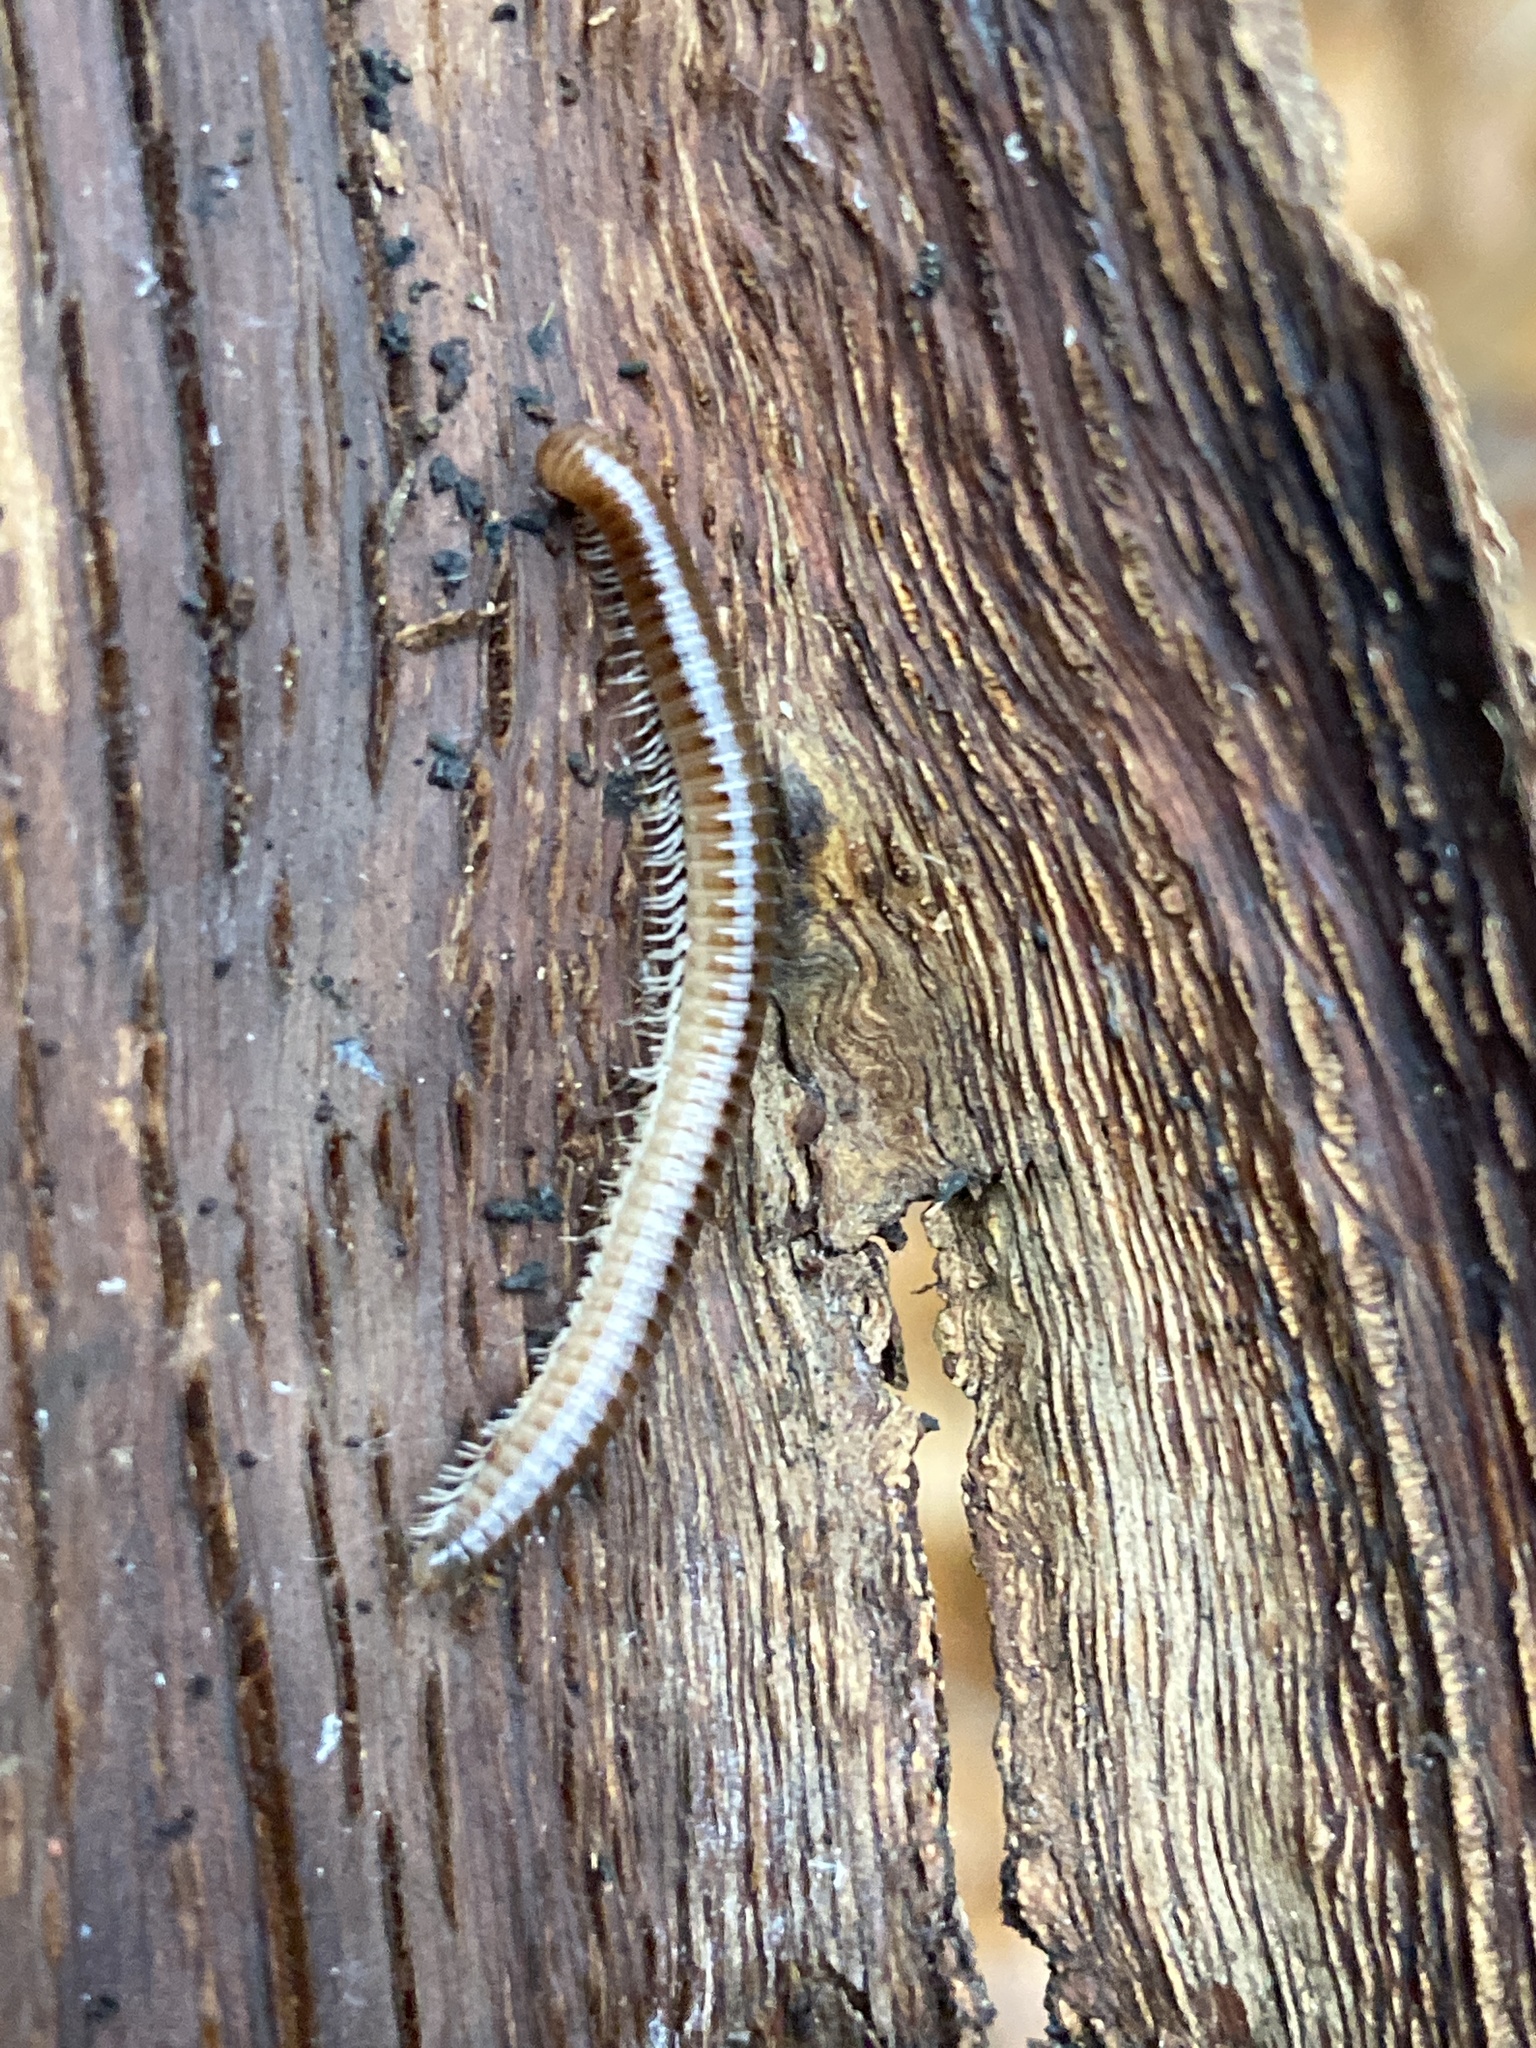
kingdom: Animalia
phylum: Arthropoda
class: Diplopoda
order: Julida
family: Julidae
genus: Julus
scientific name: Julus scandinavius
